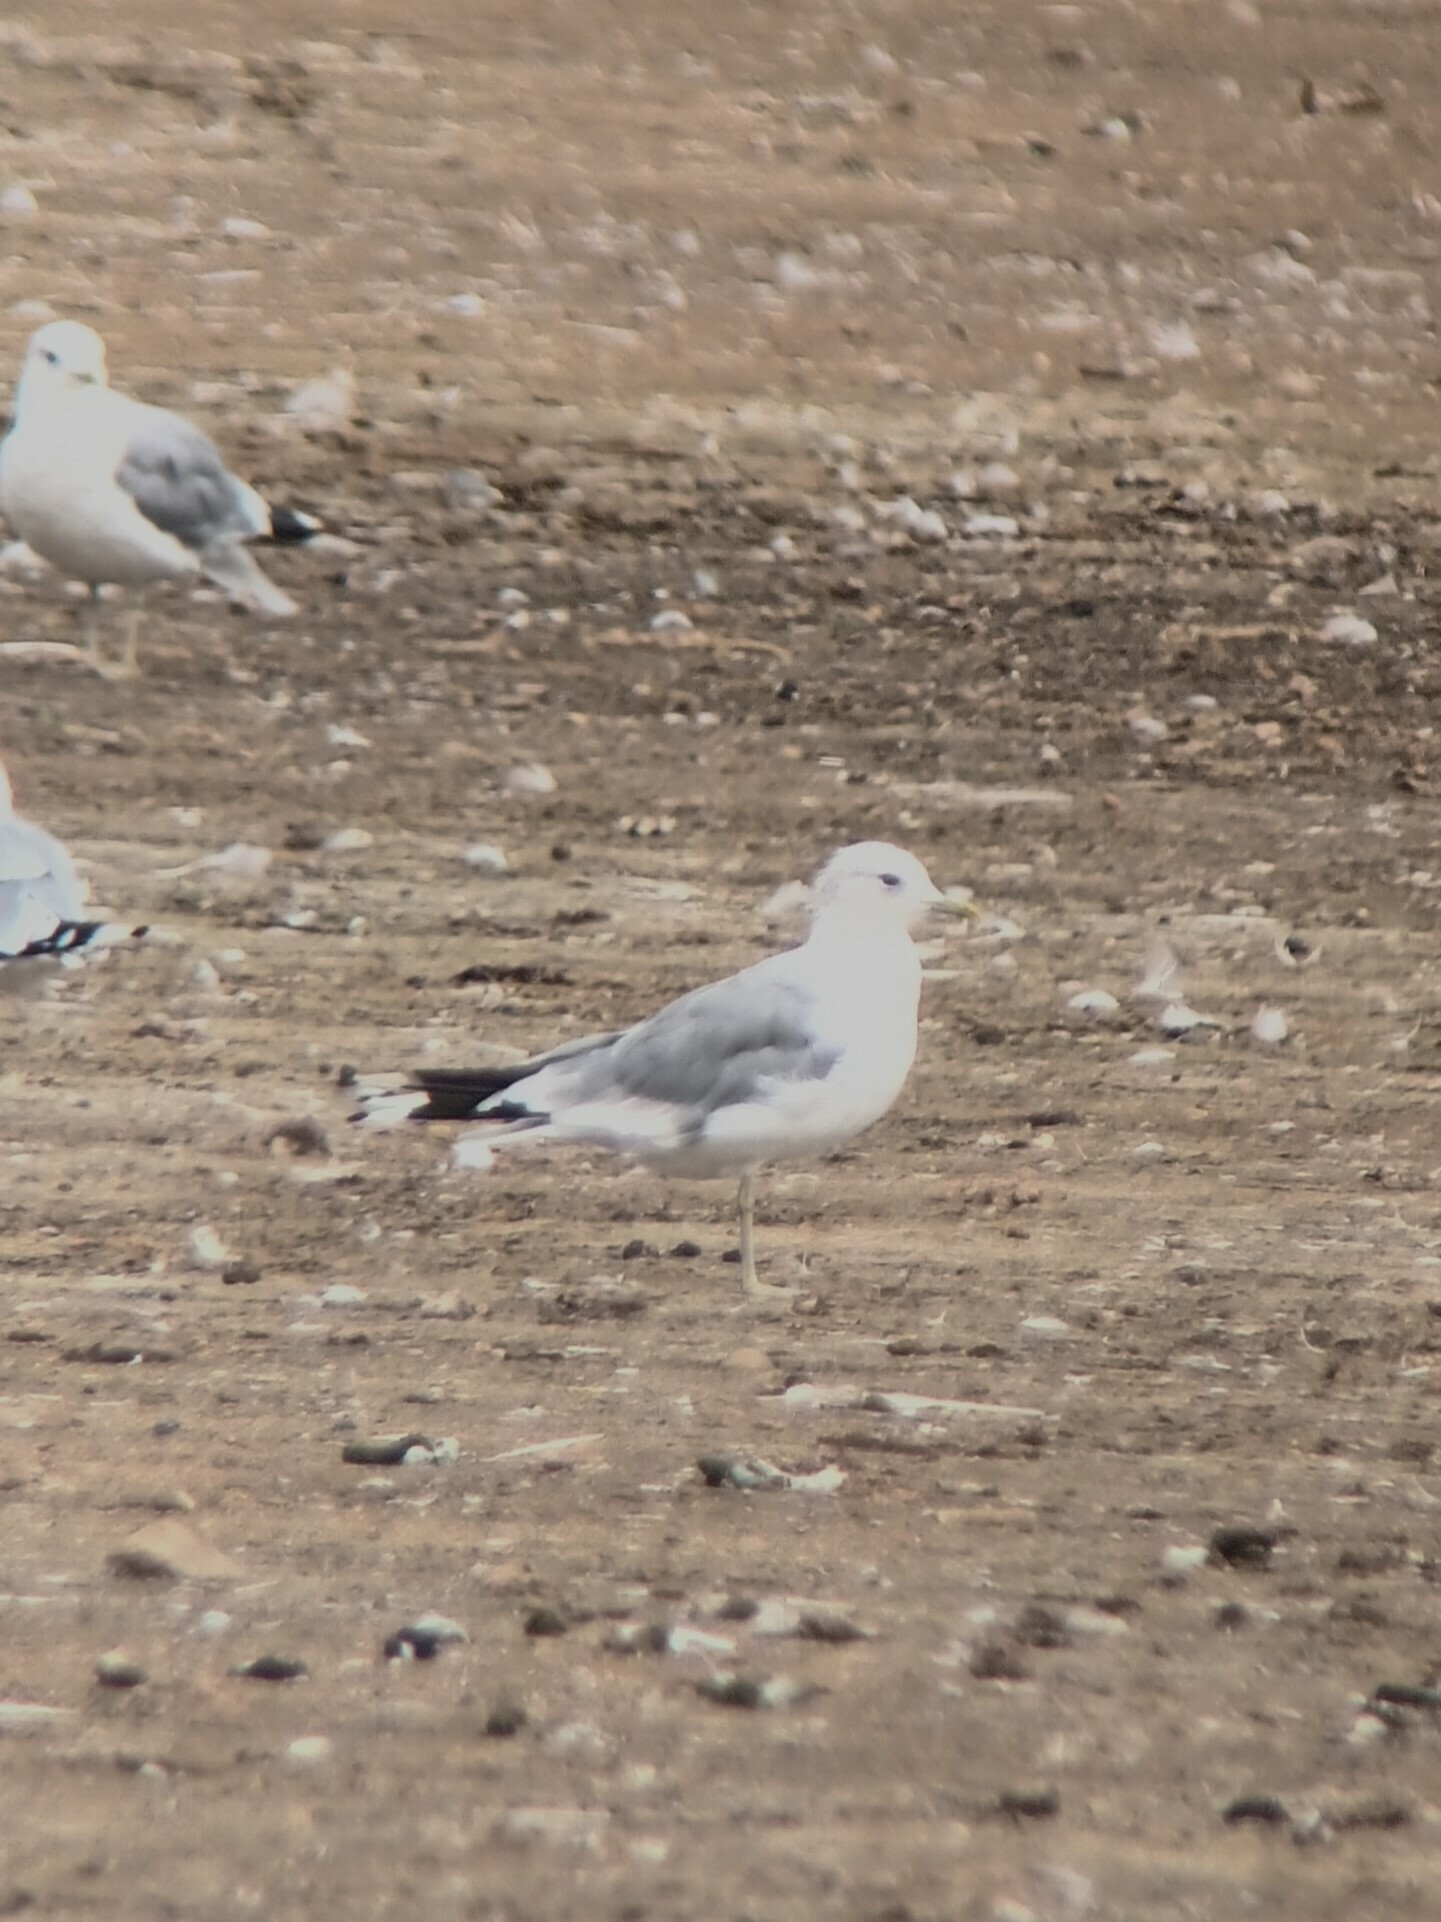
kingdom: Animalia
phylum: Chordata
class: Aves
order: Charadriiformes
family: Laridae
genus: Larus
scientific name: Larus canus
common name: Mew gull
